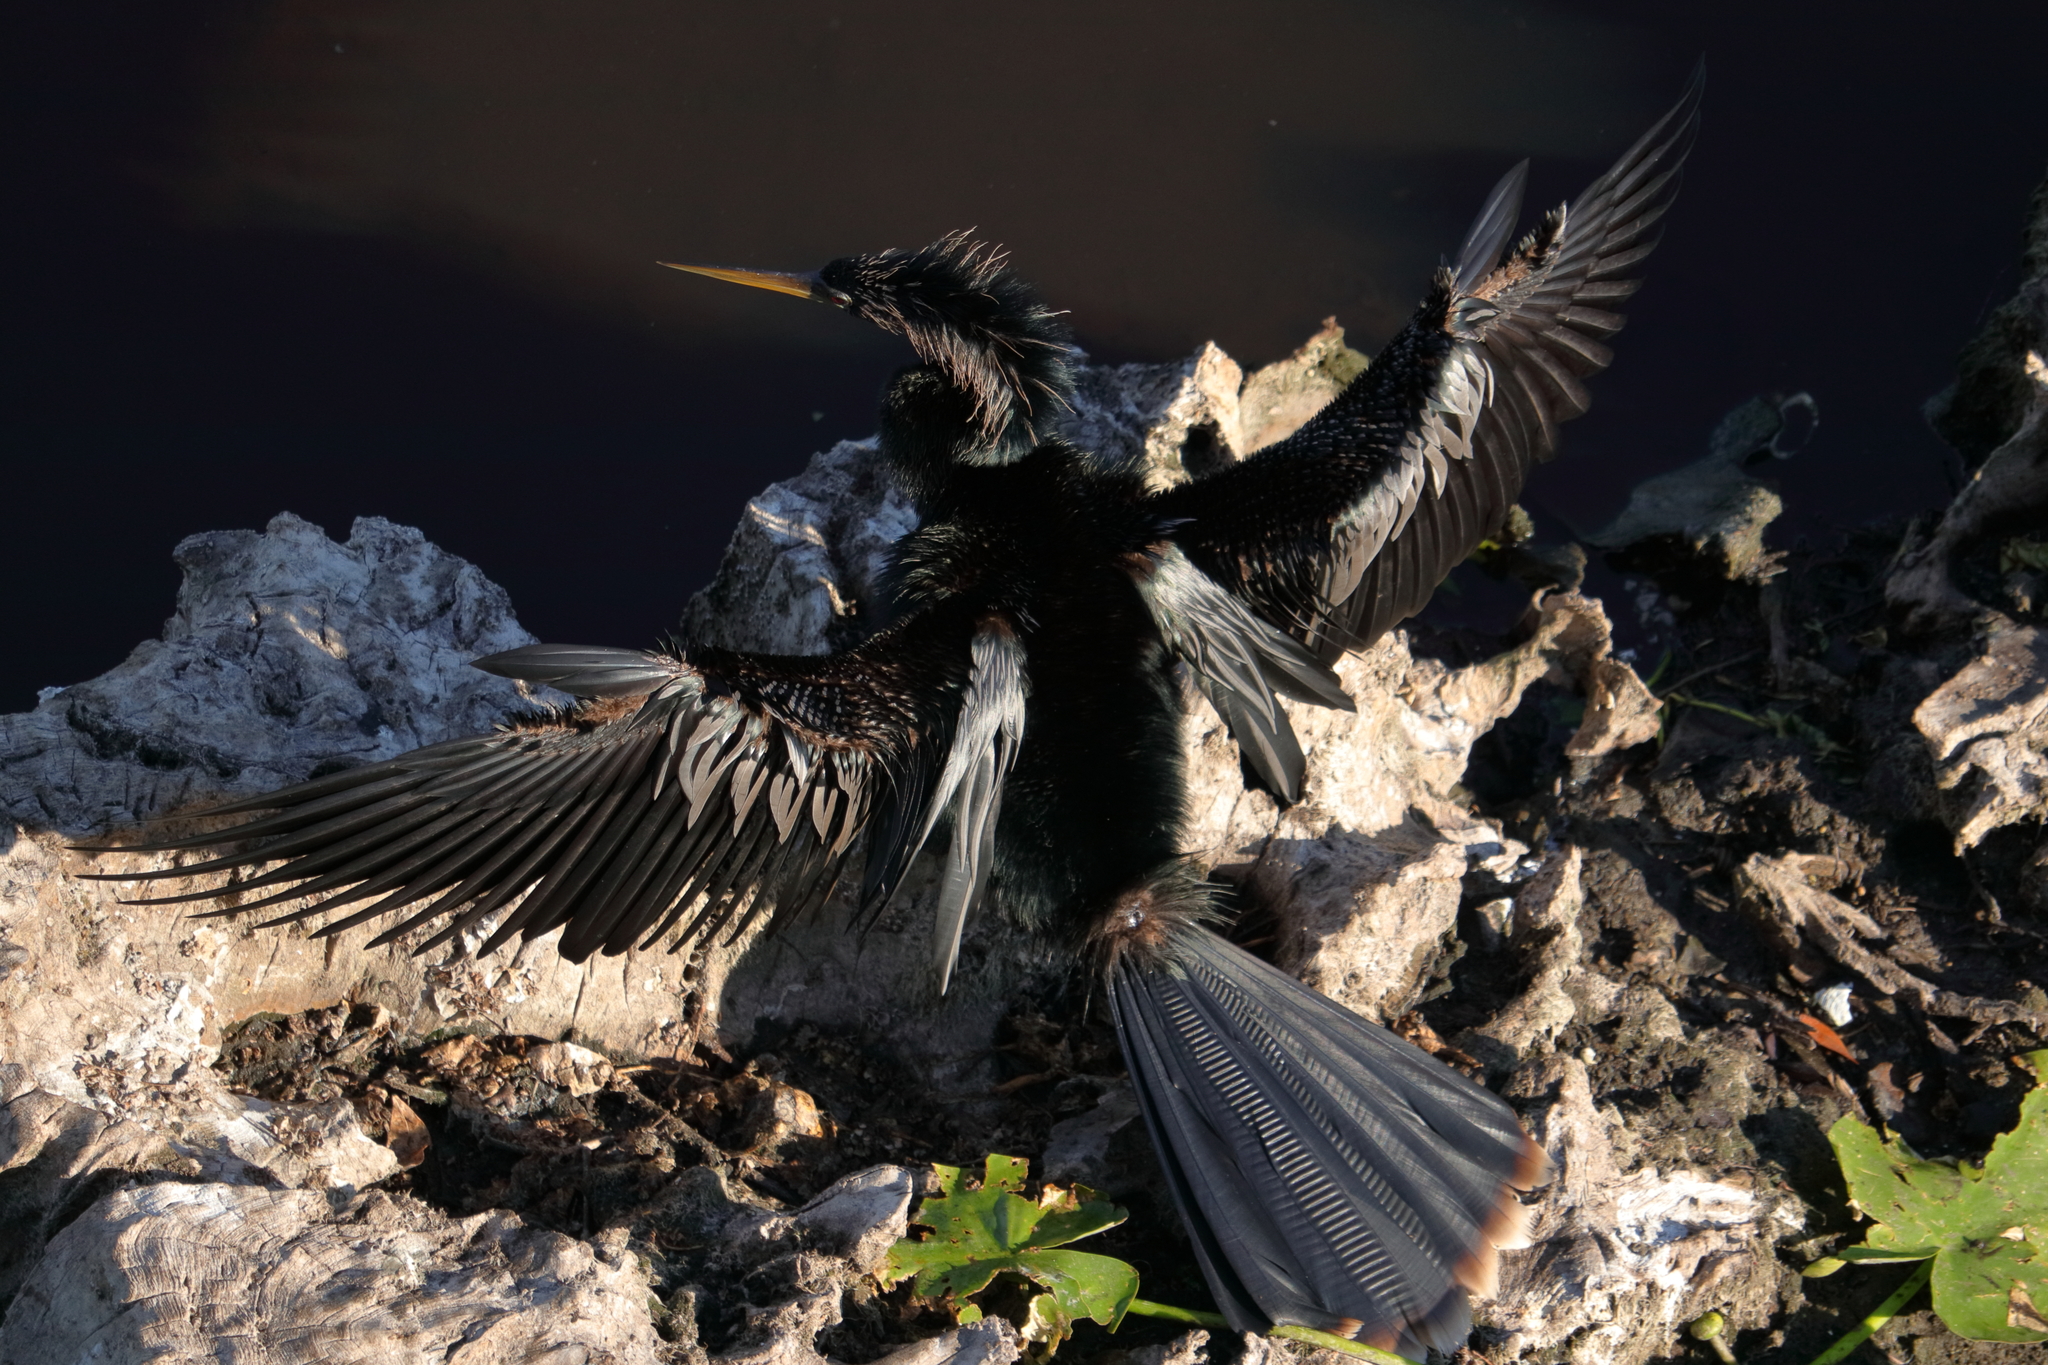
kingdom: Animalia
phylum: Chordata
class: Aves
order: Suliformes
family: Anhingidae
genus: Anhinga
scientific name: Anhinga anhinga
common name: Anhinga
